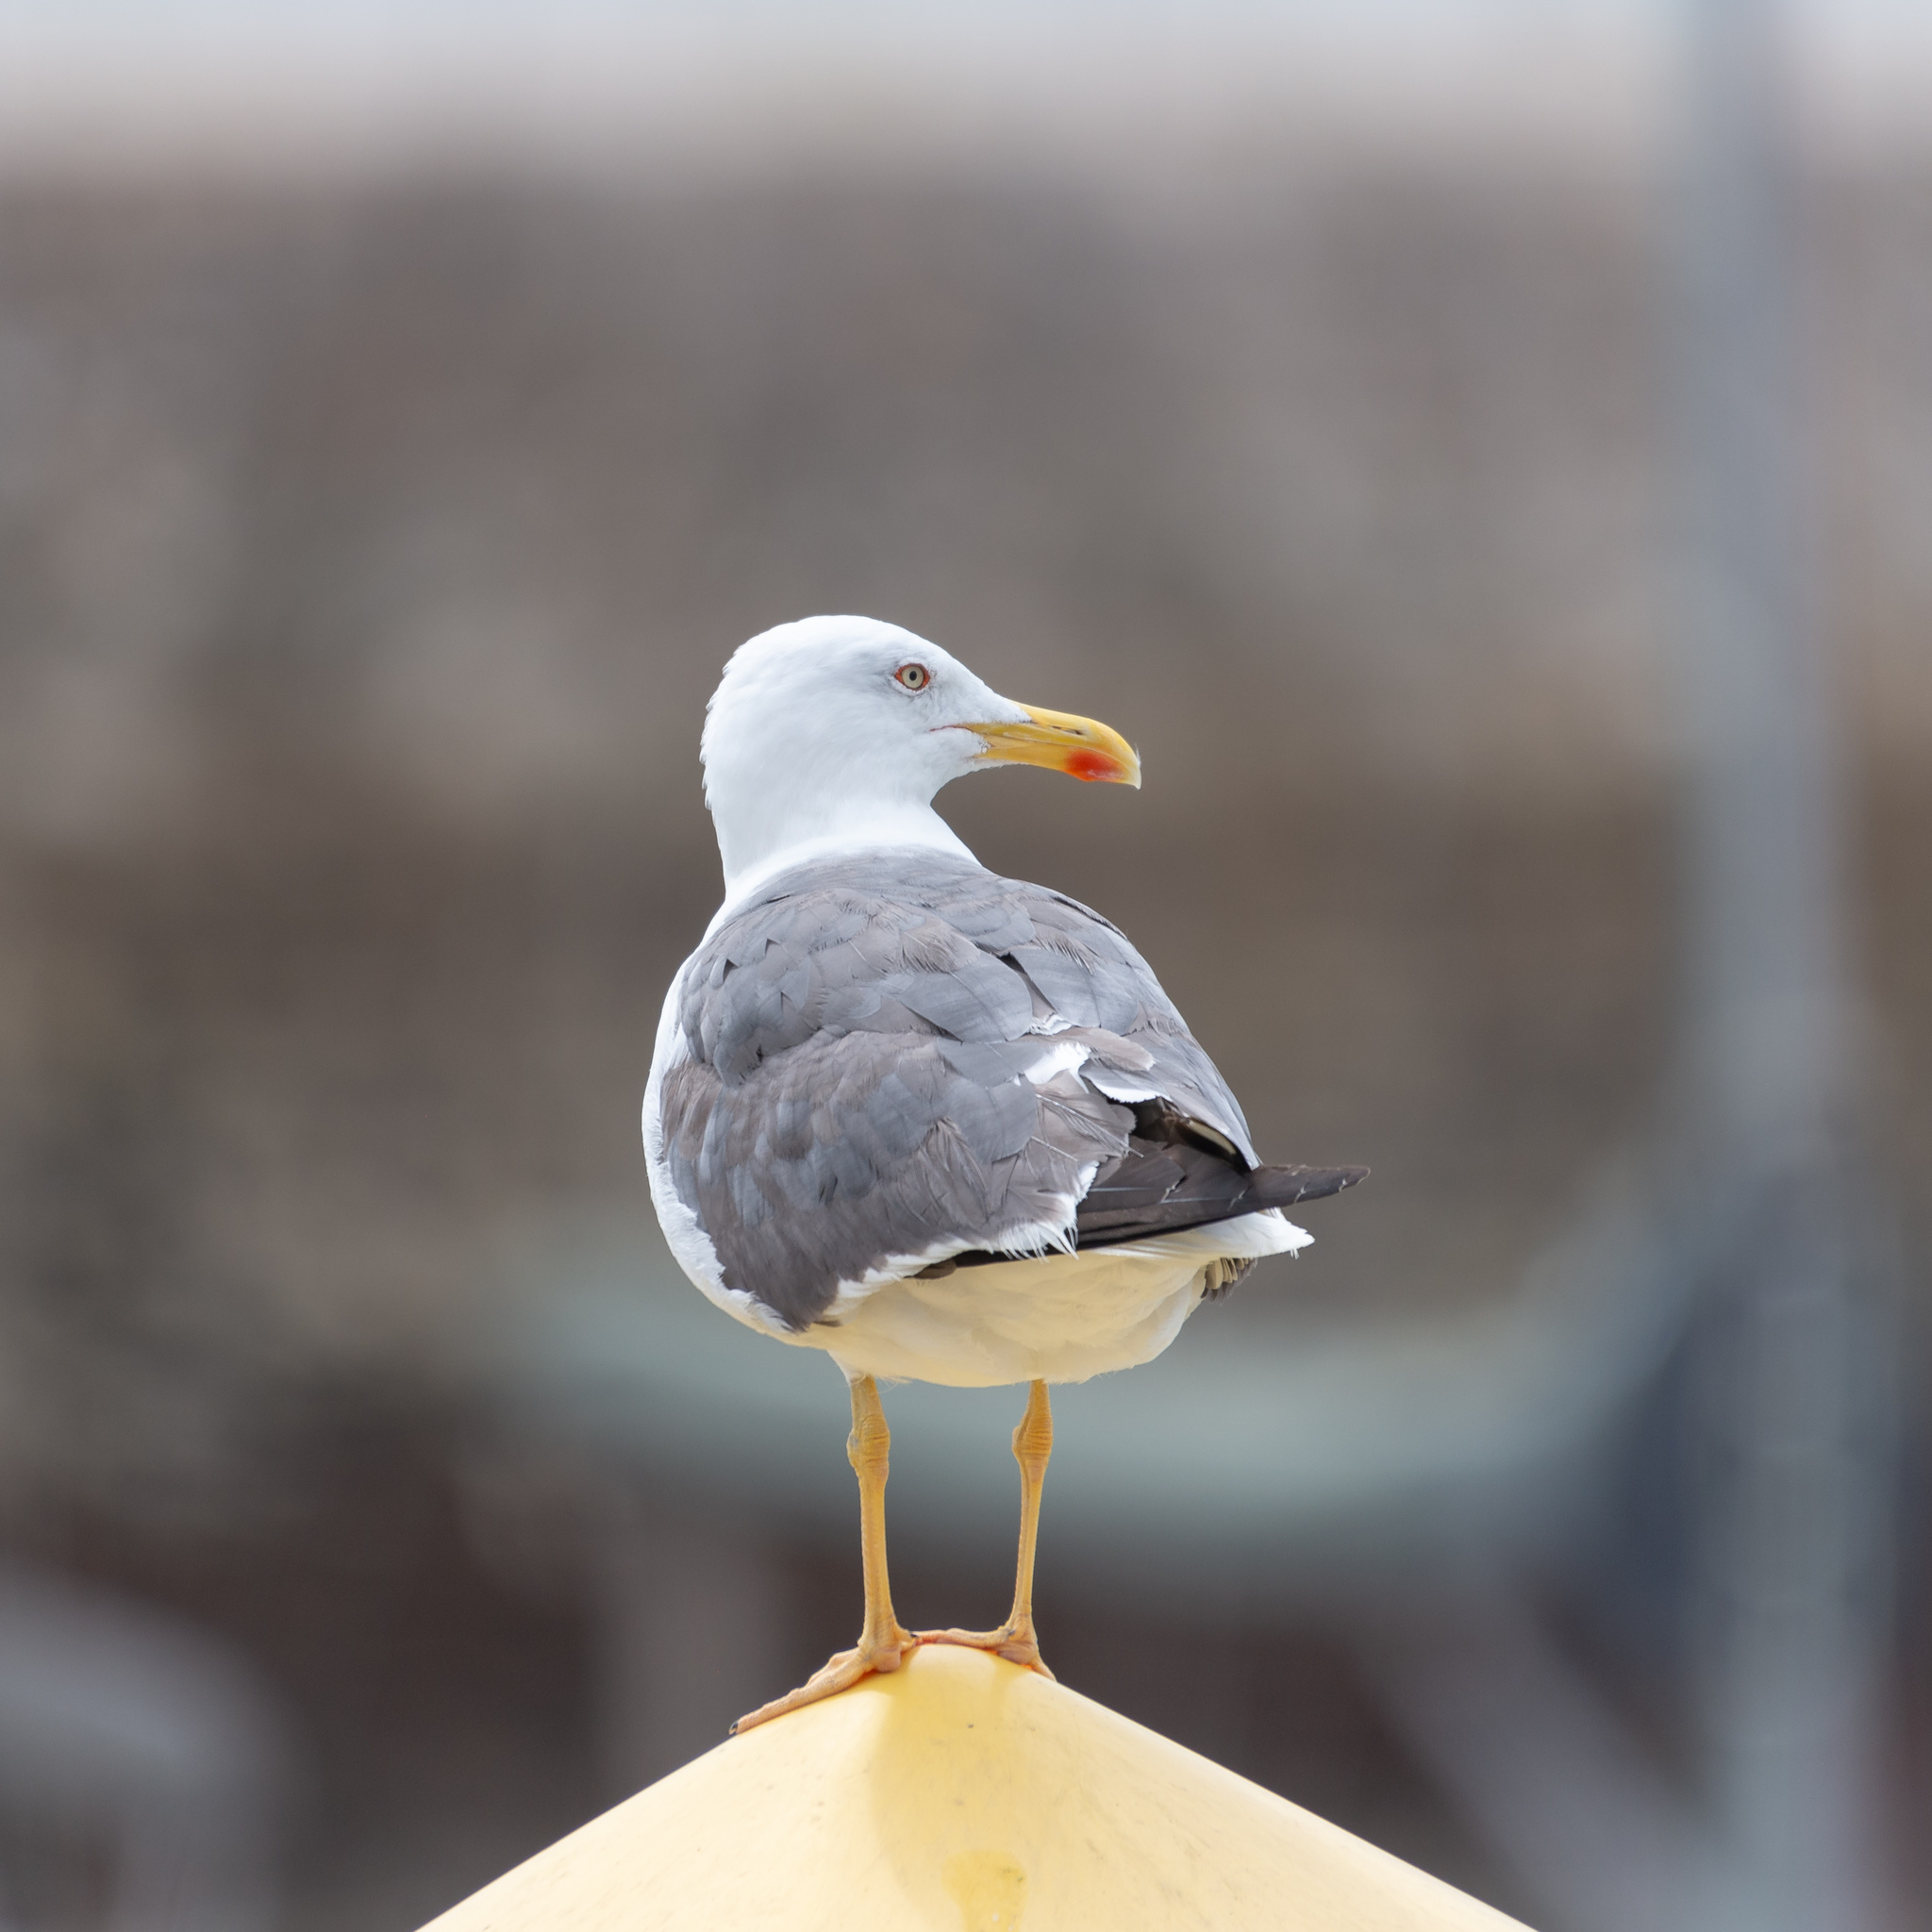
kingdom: Animalia
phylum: Chordata
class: Aves
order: Charadriiformes
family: Laridae
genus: Larus
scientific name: Larus michahellis
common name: Yellow-legged gull
